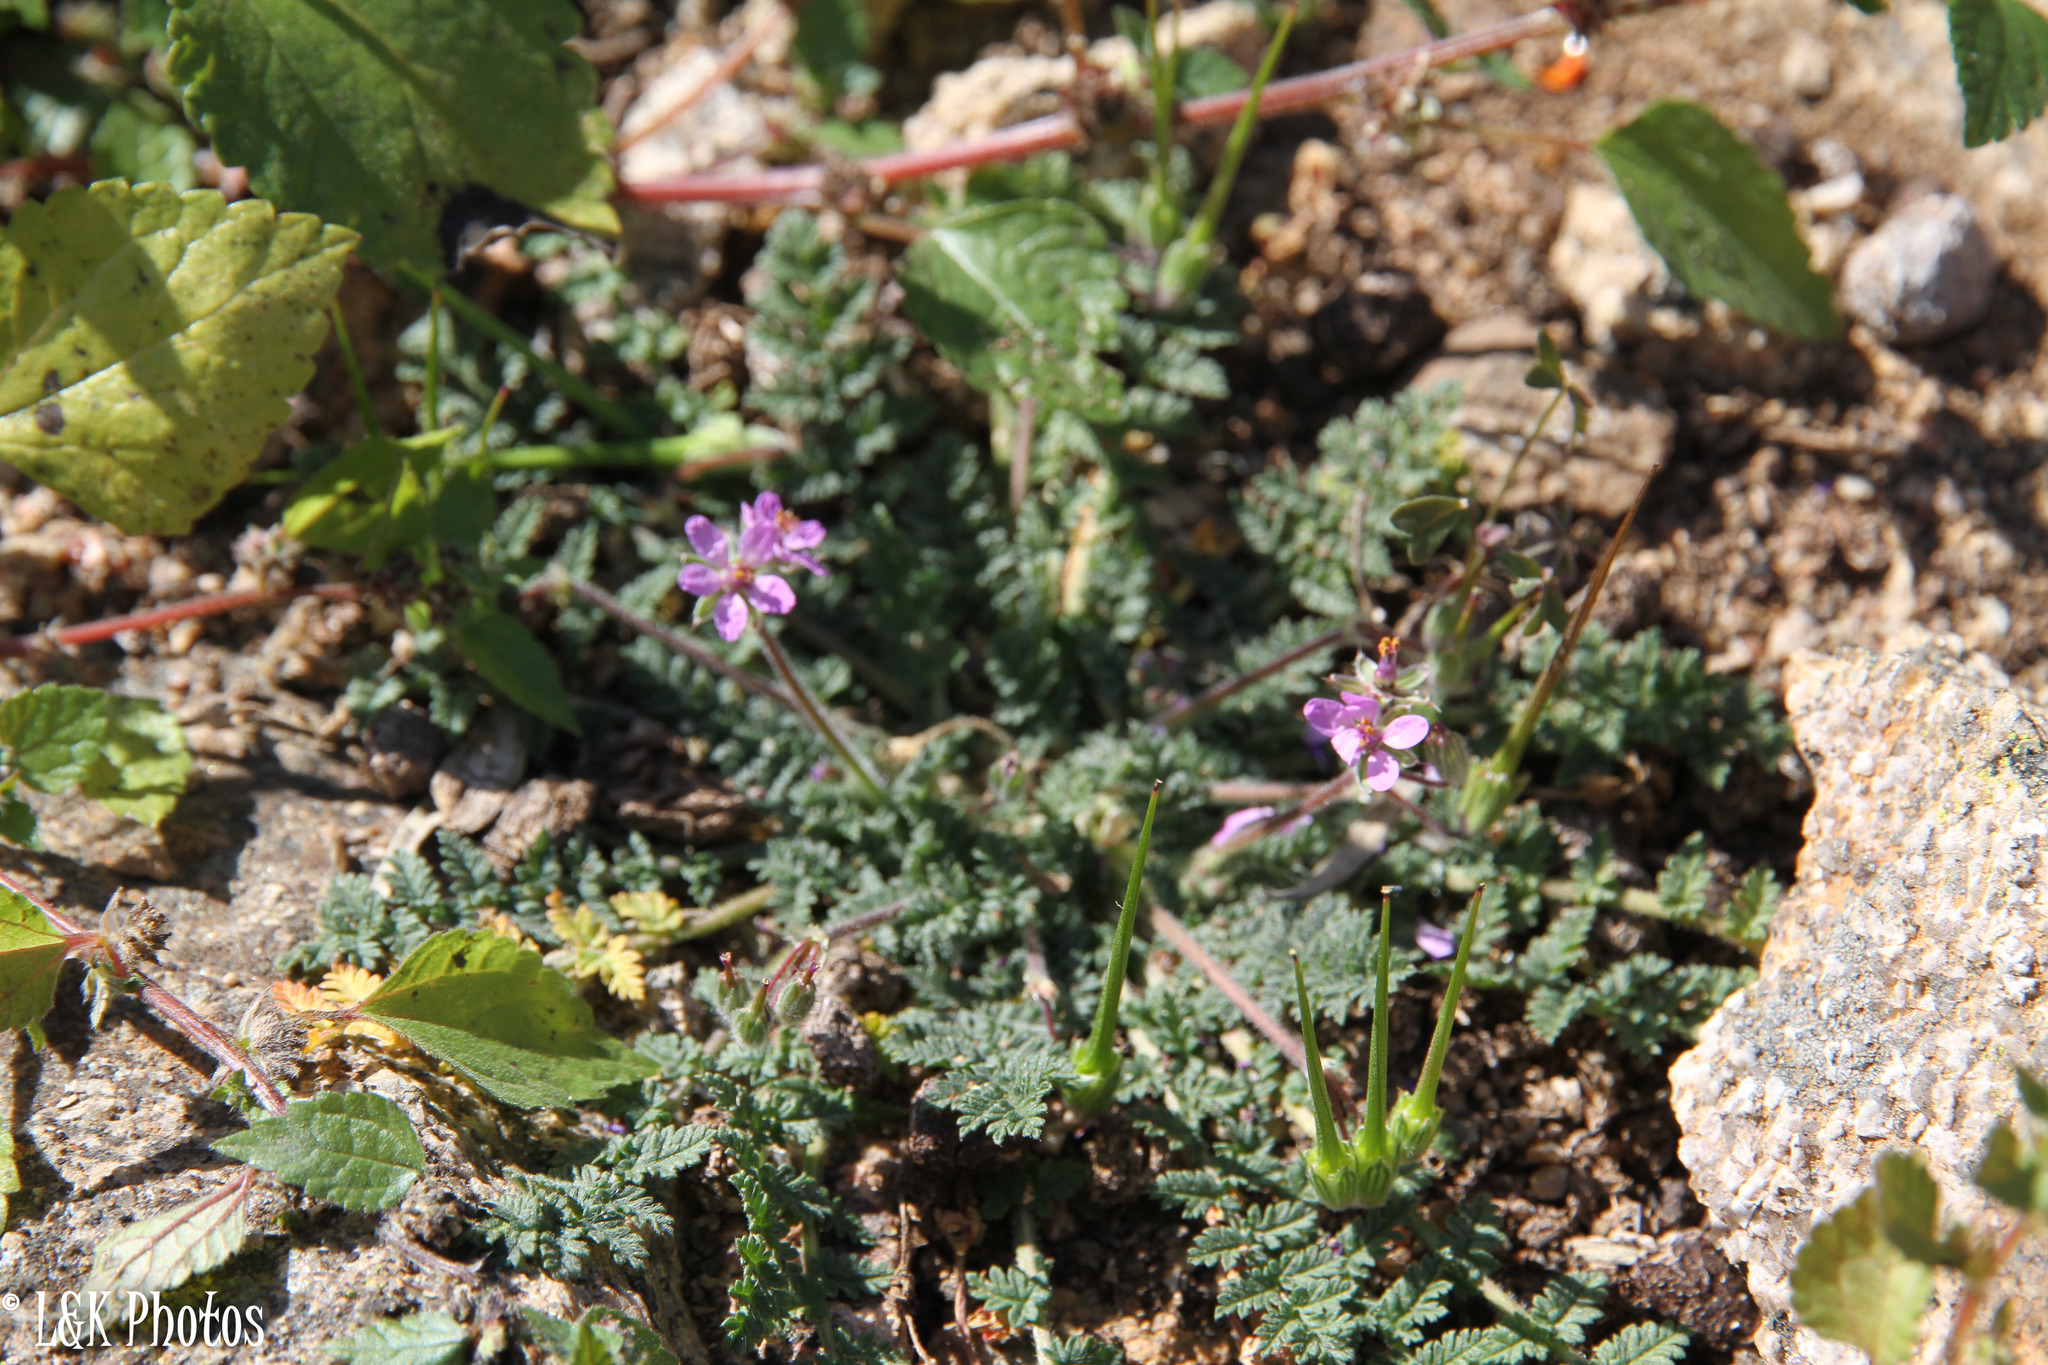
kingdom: Plantae
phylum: Tracheophyta
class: Magnoliopsida
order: Geraniales
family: Geraniaceae
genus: Erodium
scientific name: Erodium cicutarium
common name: Common stork's-bill
